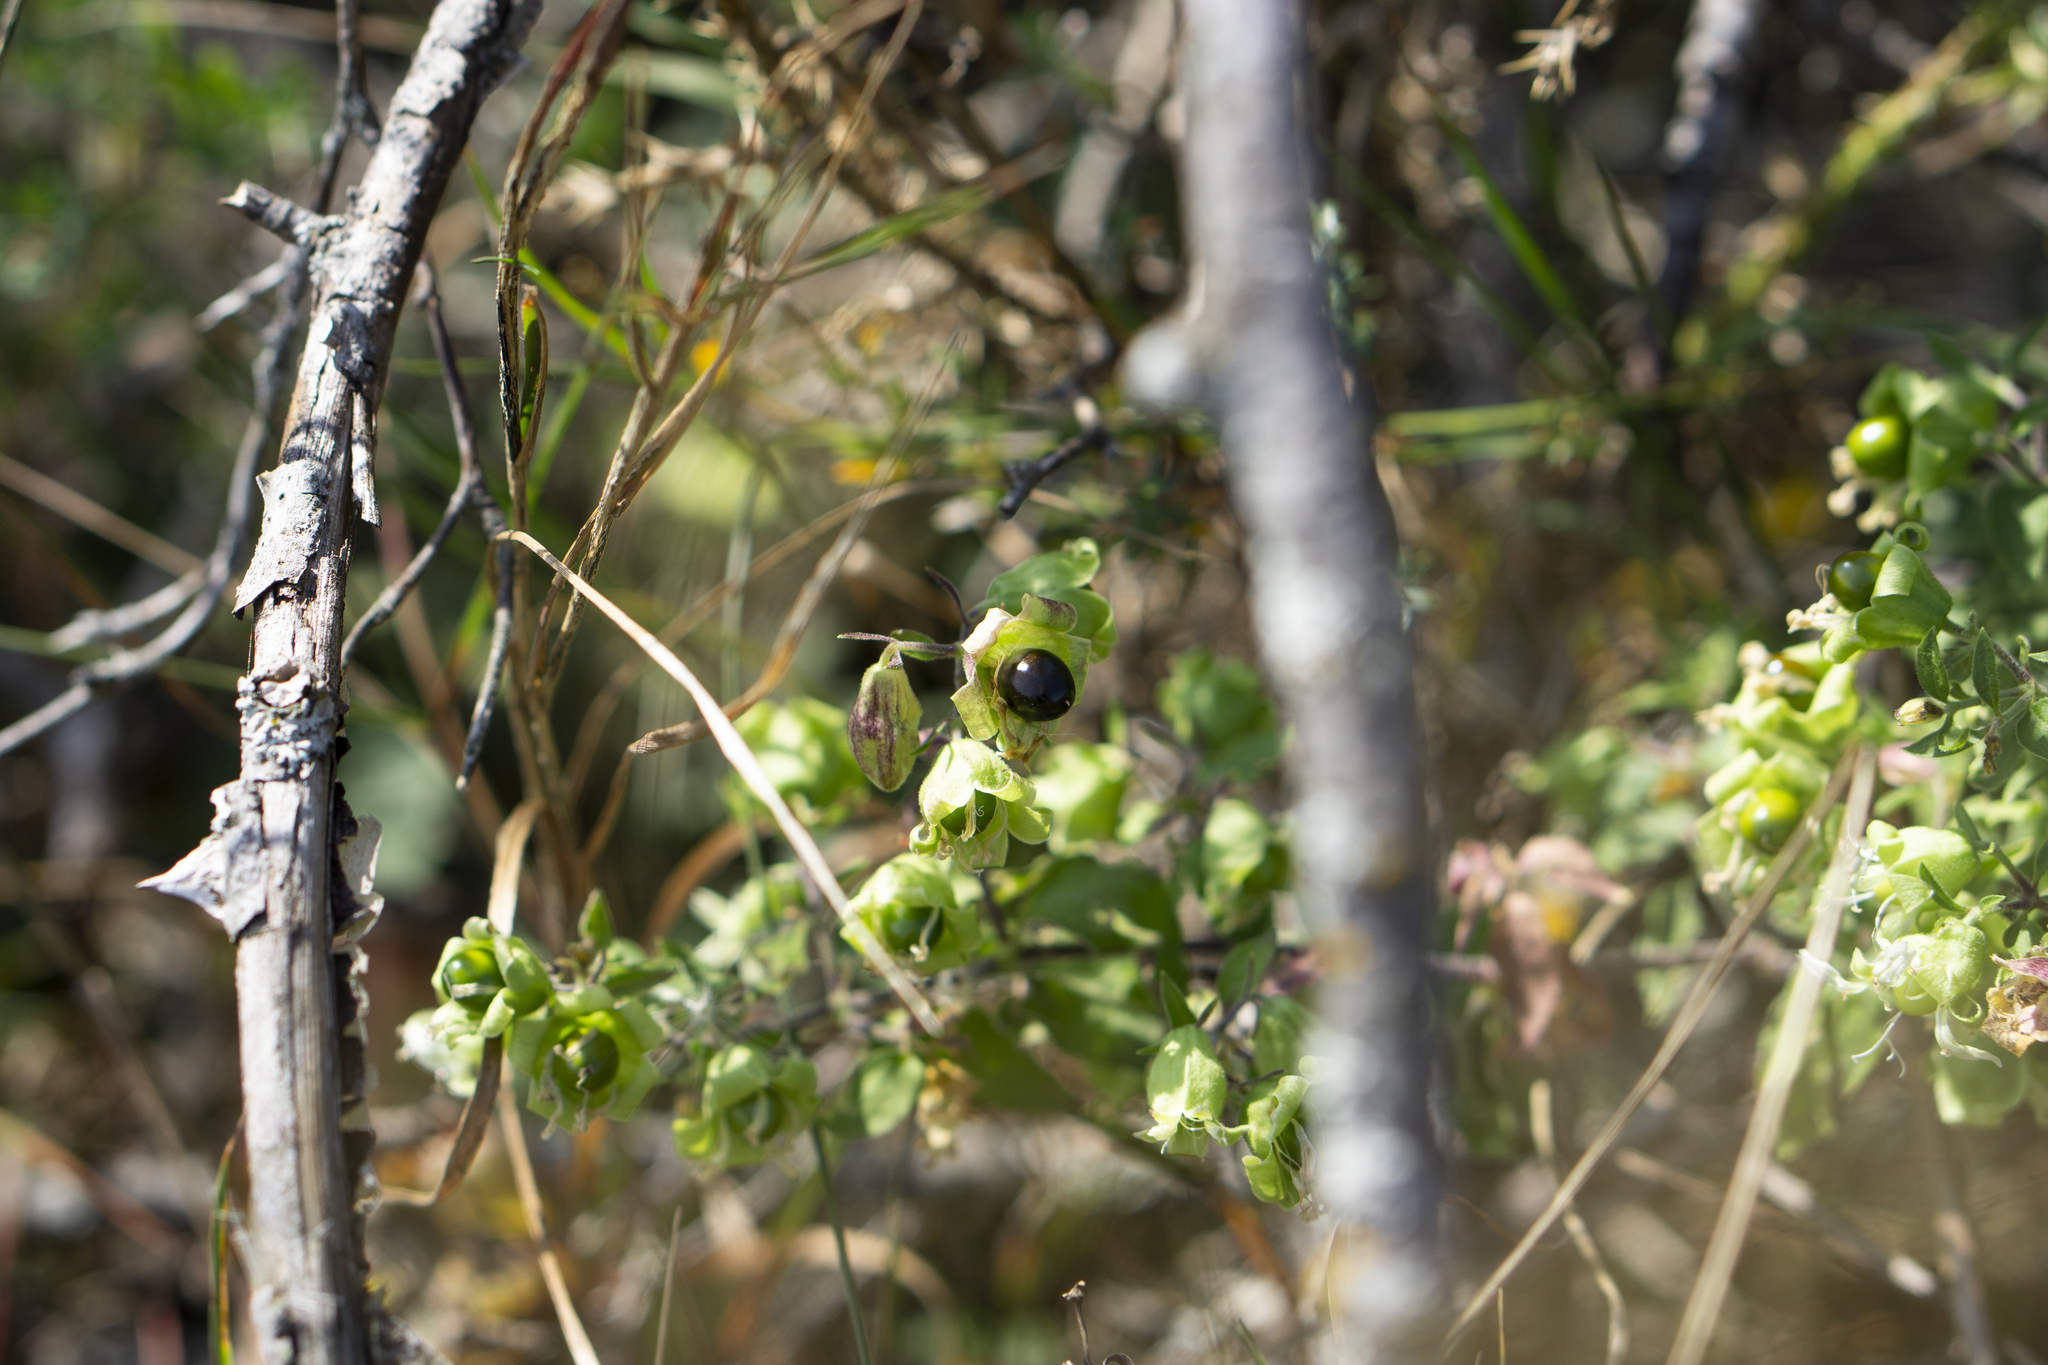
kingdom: Plantae
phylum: Tracheophyta
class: Magnoliopsida
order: Caryophyllales
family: Caryophyllaceae
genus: Silene
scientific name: Silene baccifera
